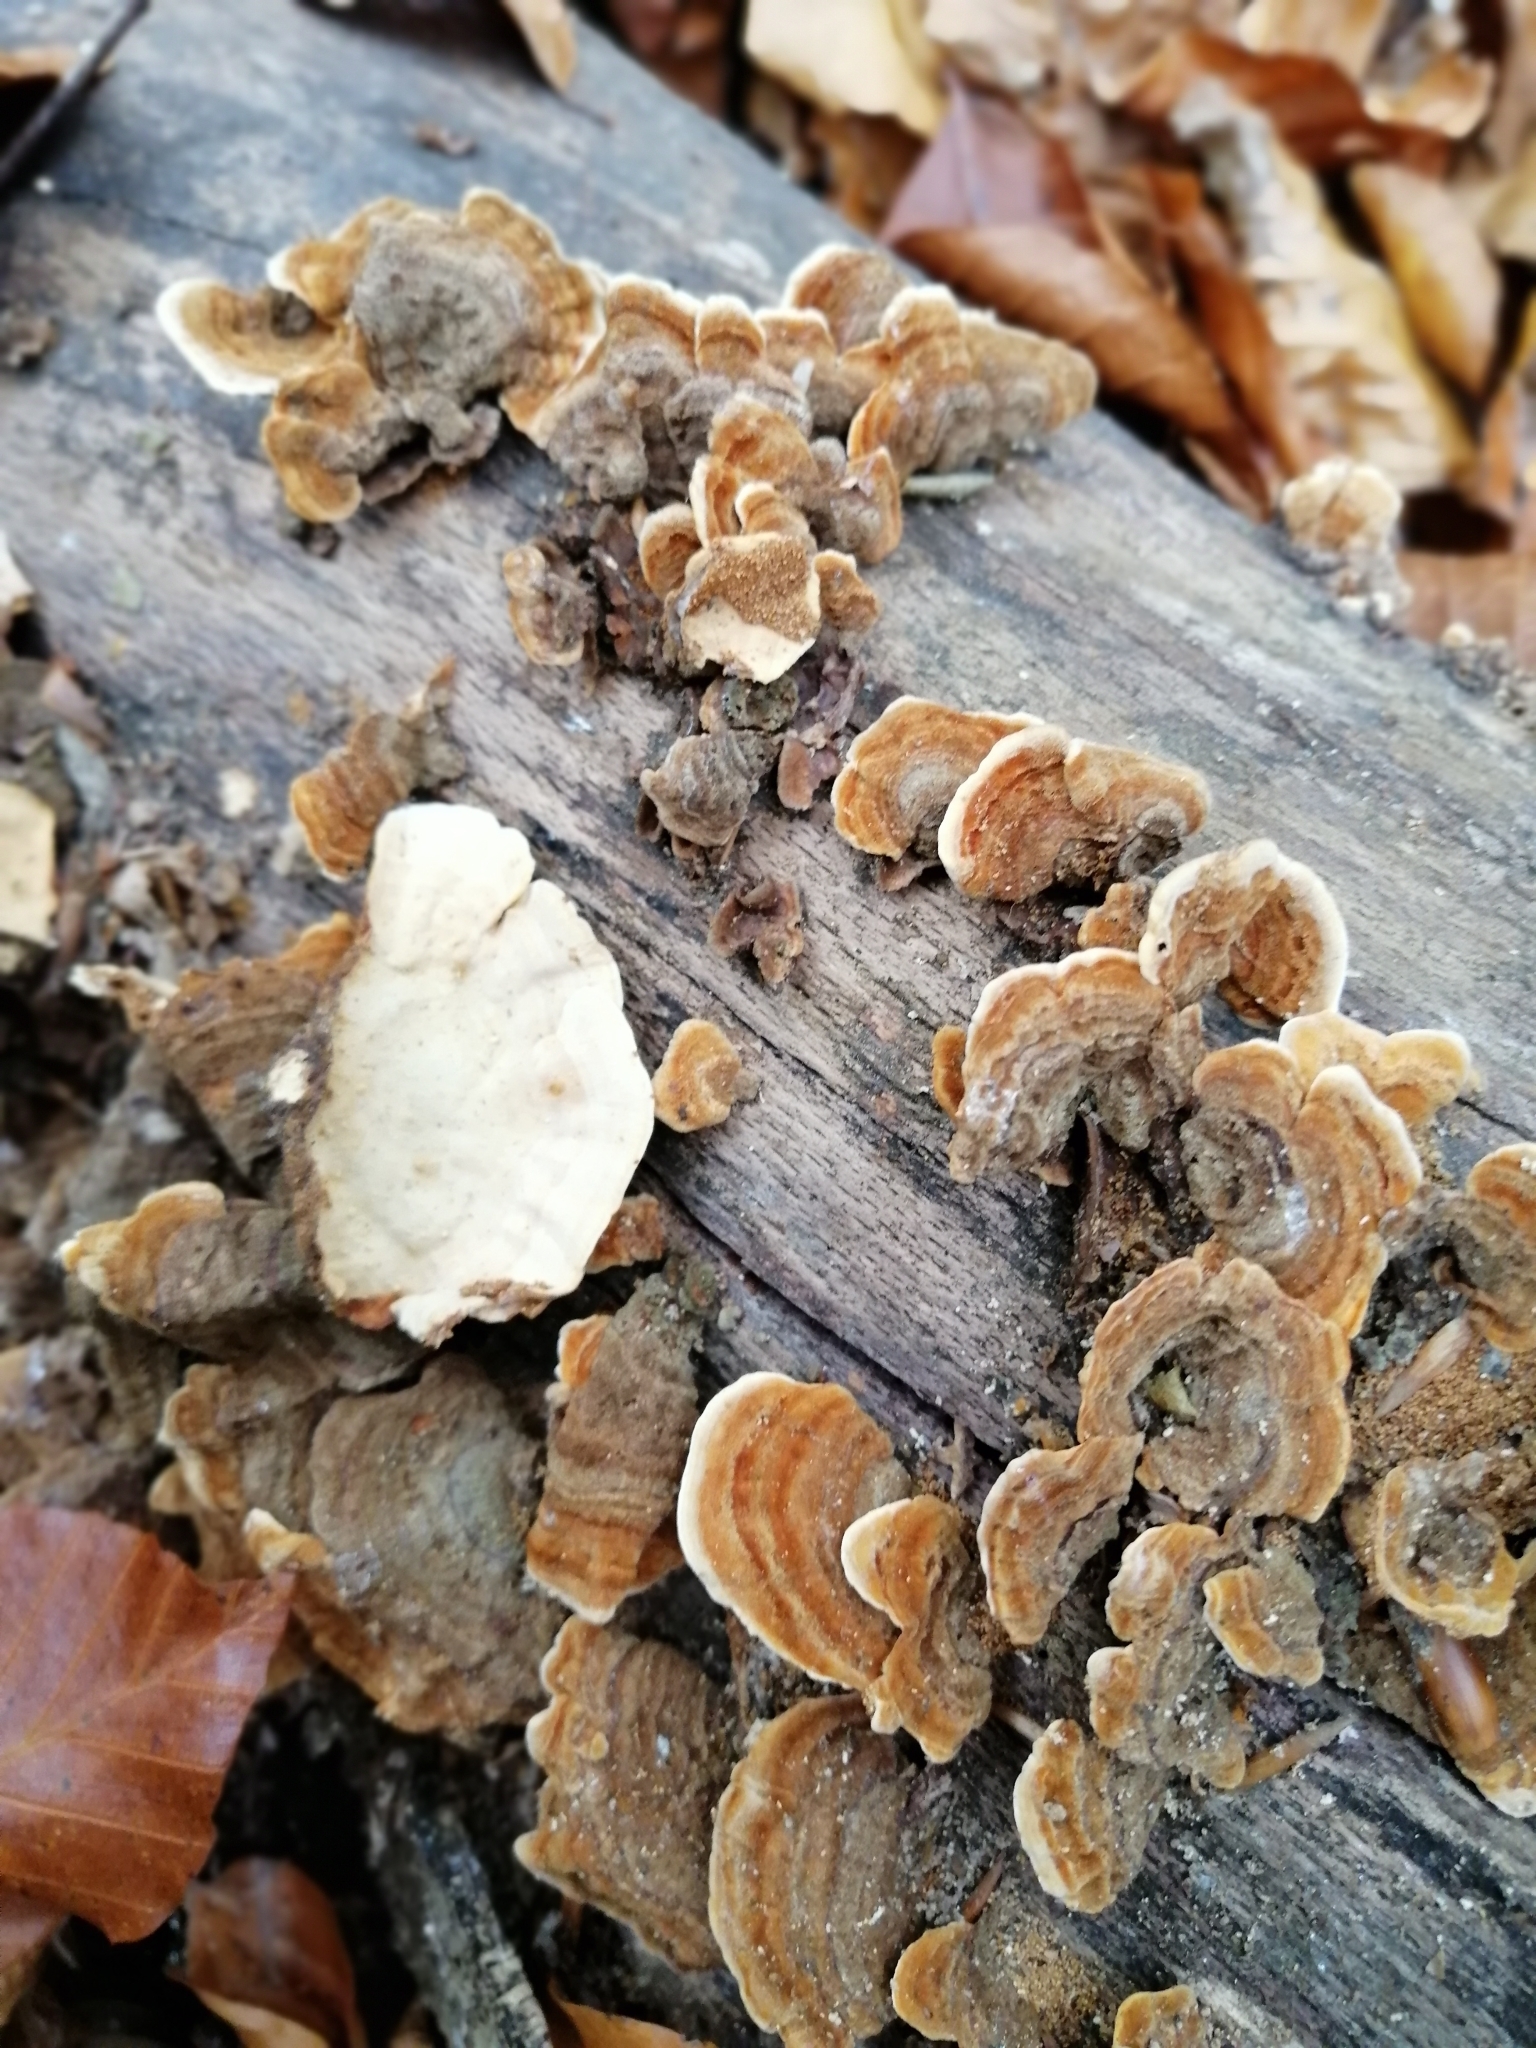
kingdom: Fungi
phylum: Basidiomycota
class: Agaricomycetes
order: Russulales
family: Stereaceae
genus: Stereum
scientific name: Stereum subtomentosum
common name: Yellowing curtain crust
